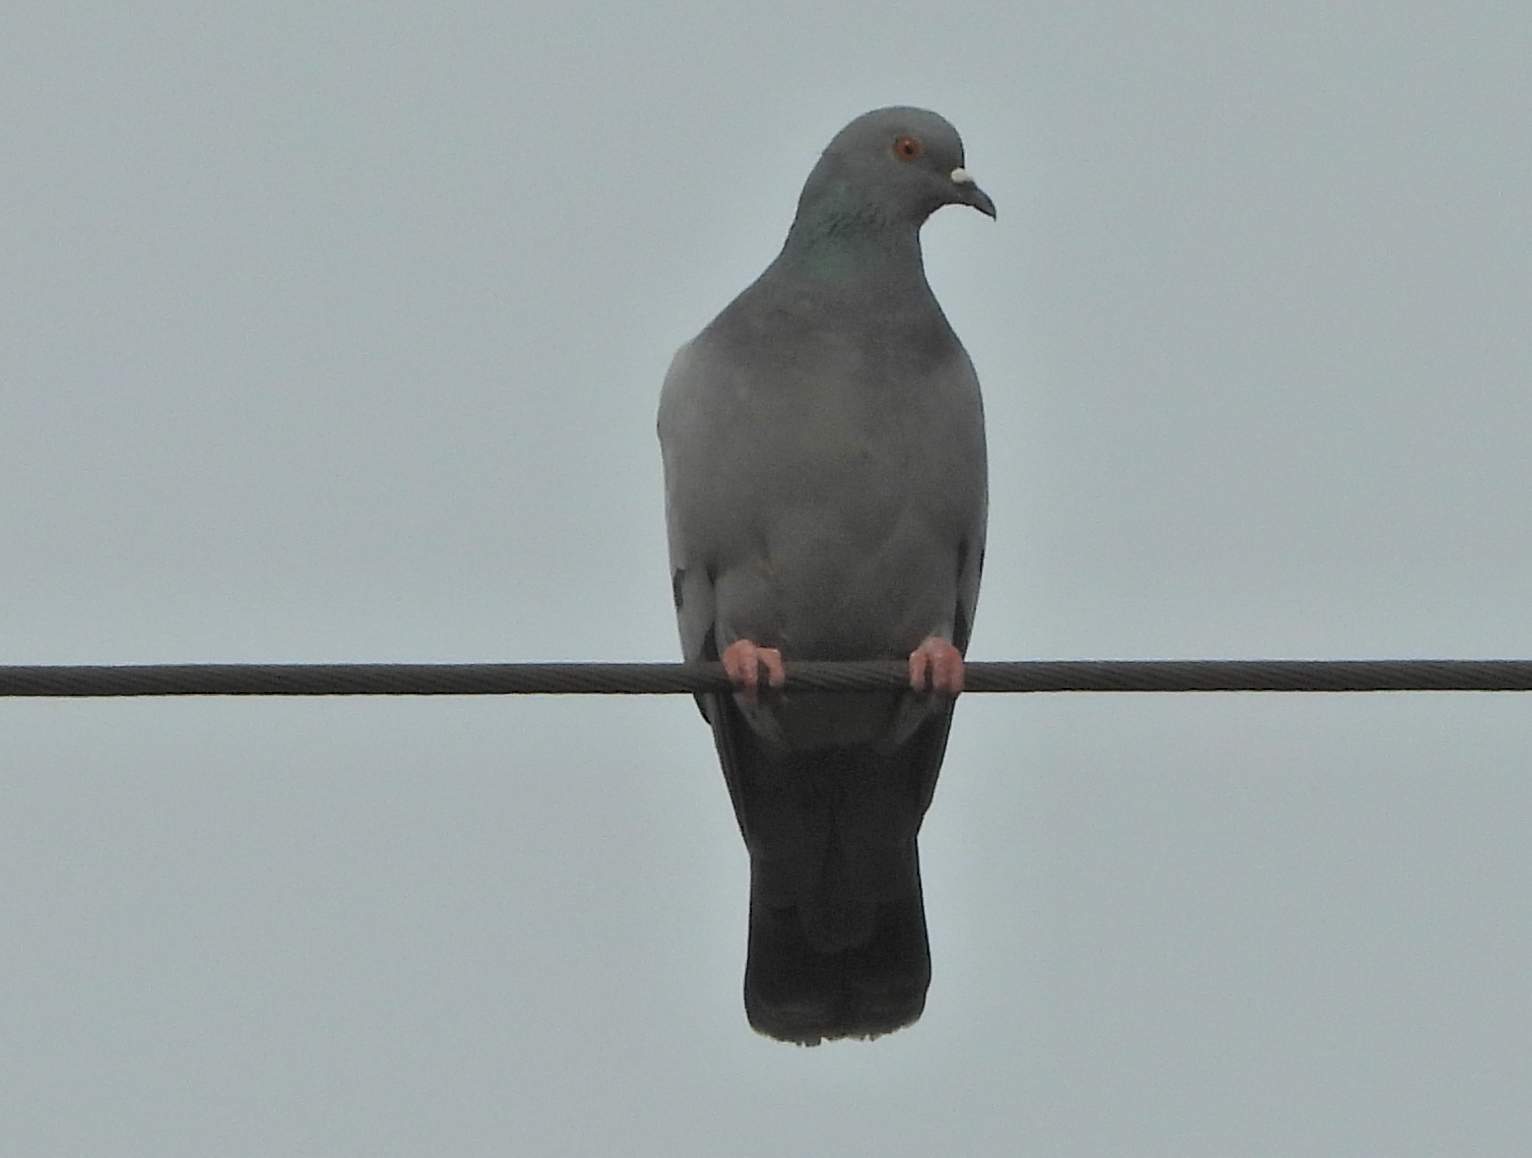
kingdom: Animalia
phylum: Chordata
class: Aves
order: Columbiformes
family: Columbidae
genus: Columba
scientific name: Columba livia
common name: Rock pigeon
